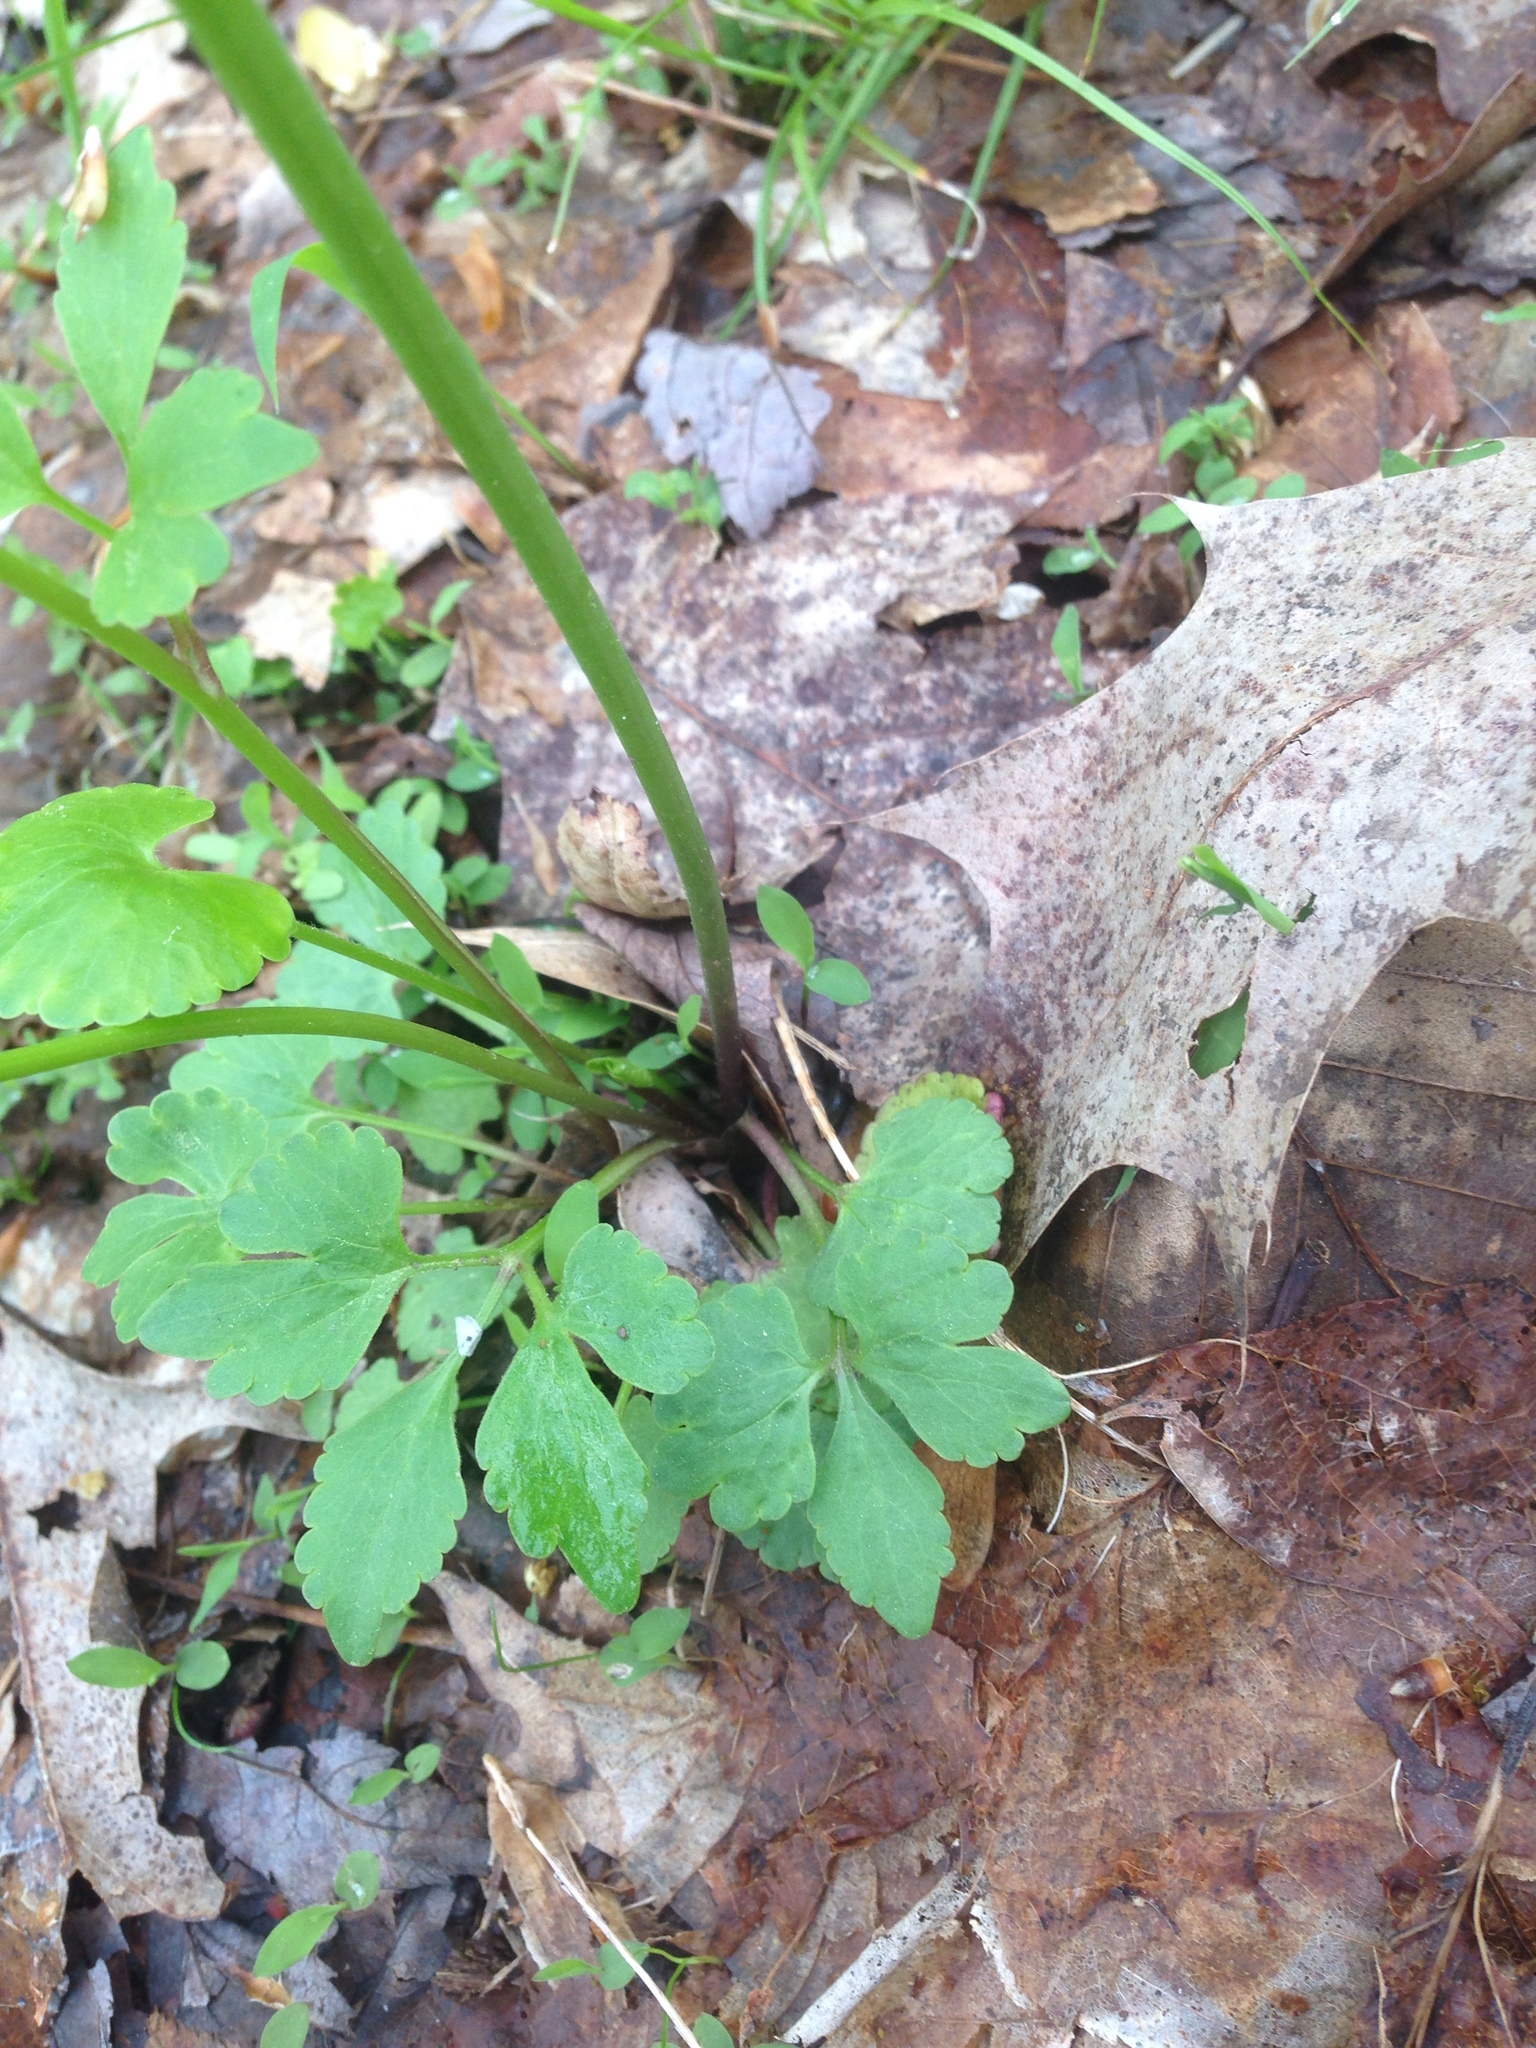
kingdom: Plantae
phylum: Tracheophyta
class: Magnoliopsida
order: Ranunculales
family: Ranunculaceae
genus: Ranunculus
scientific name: Ranunculus abortivus
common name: Early wood buttercup
